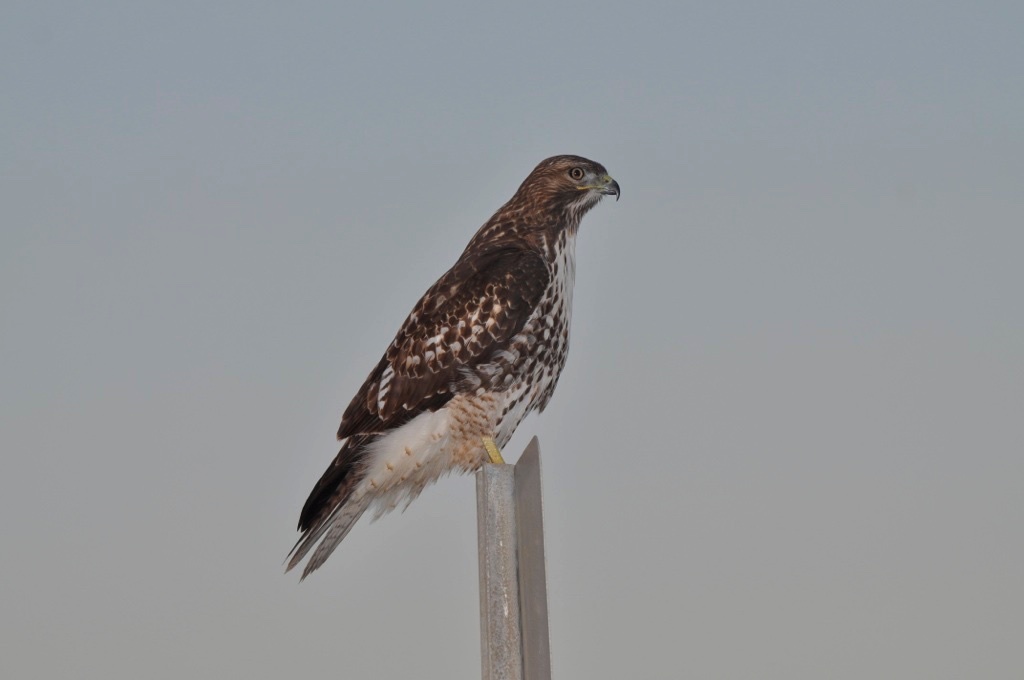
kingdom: Animalia
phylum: Chordata
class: Aves
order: Accipitriformes
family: Accipitridae
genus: Buteo
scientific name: Buteo jamaicensis
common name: Red-tailed hawk
